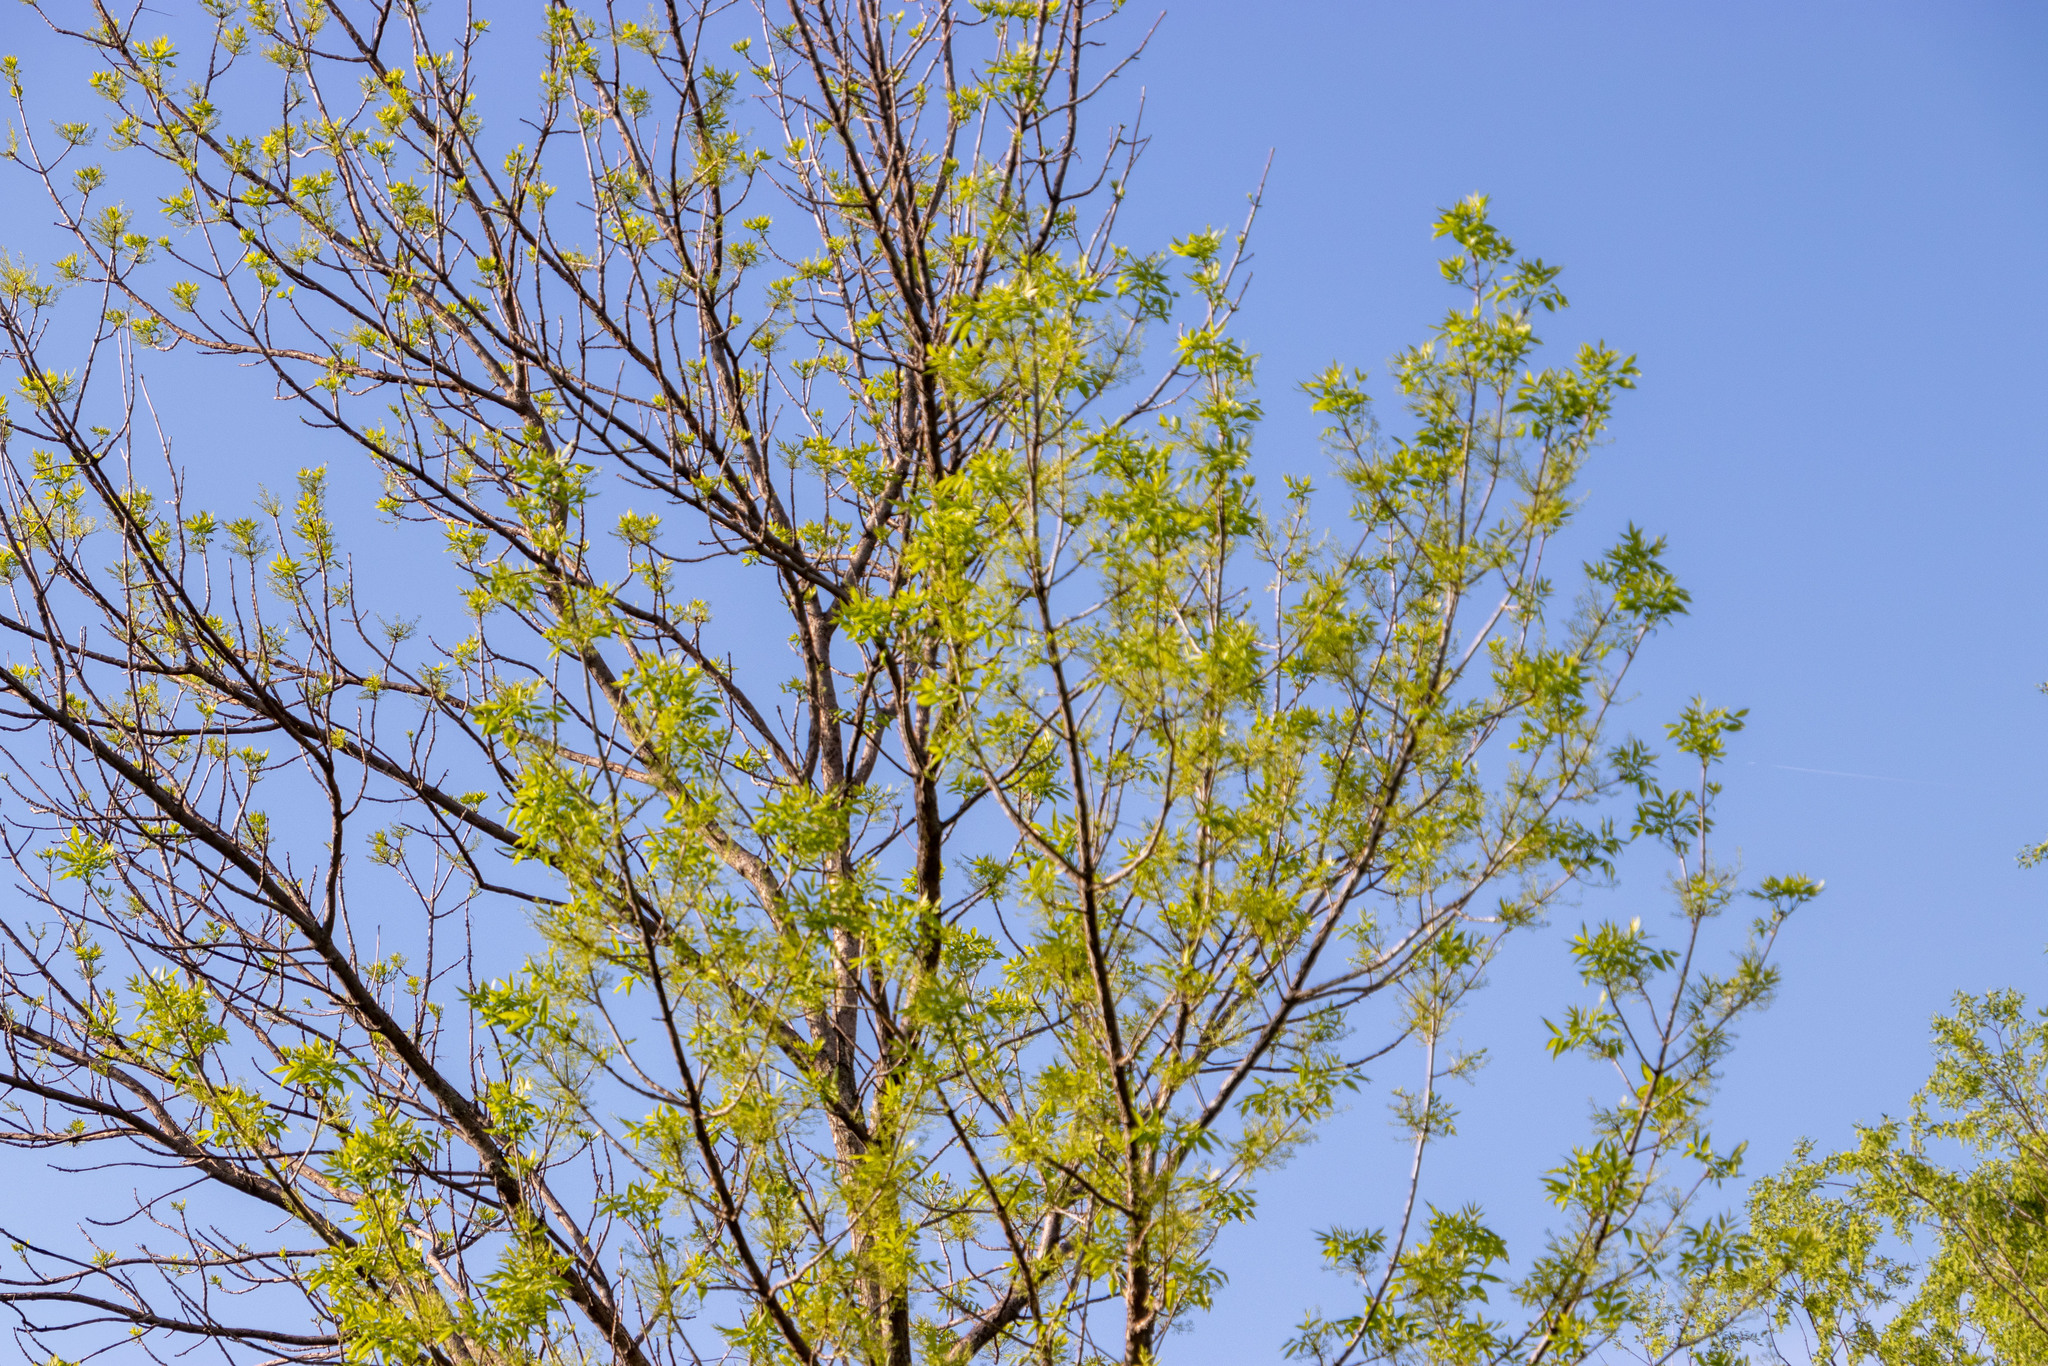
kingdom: Plantae
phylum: Tracheophyta
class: Magnoliopsida
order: Lamiales
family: Oleaceae
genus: Fraxinus
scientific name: Fraxinus pennsylvanica
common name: Green ash
